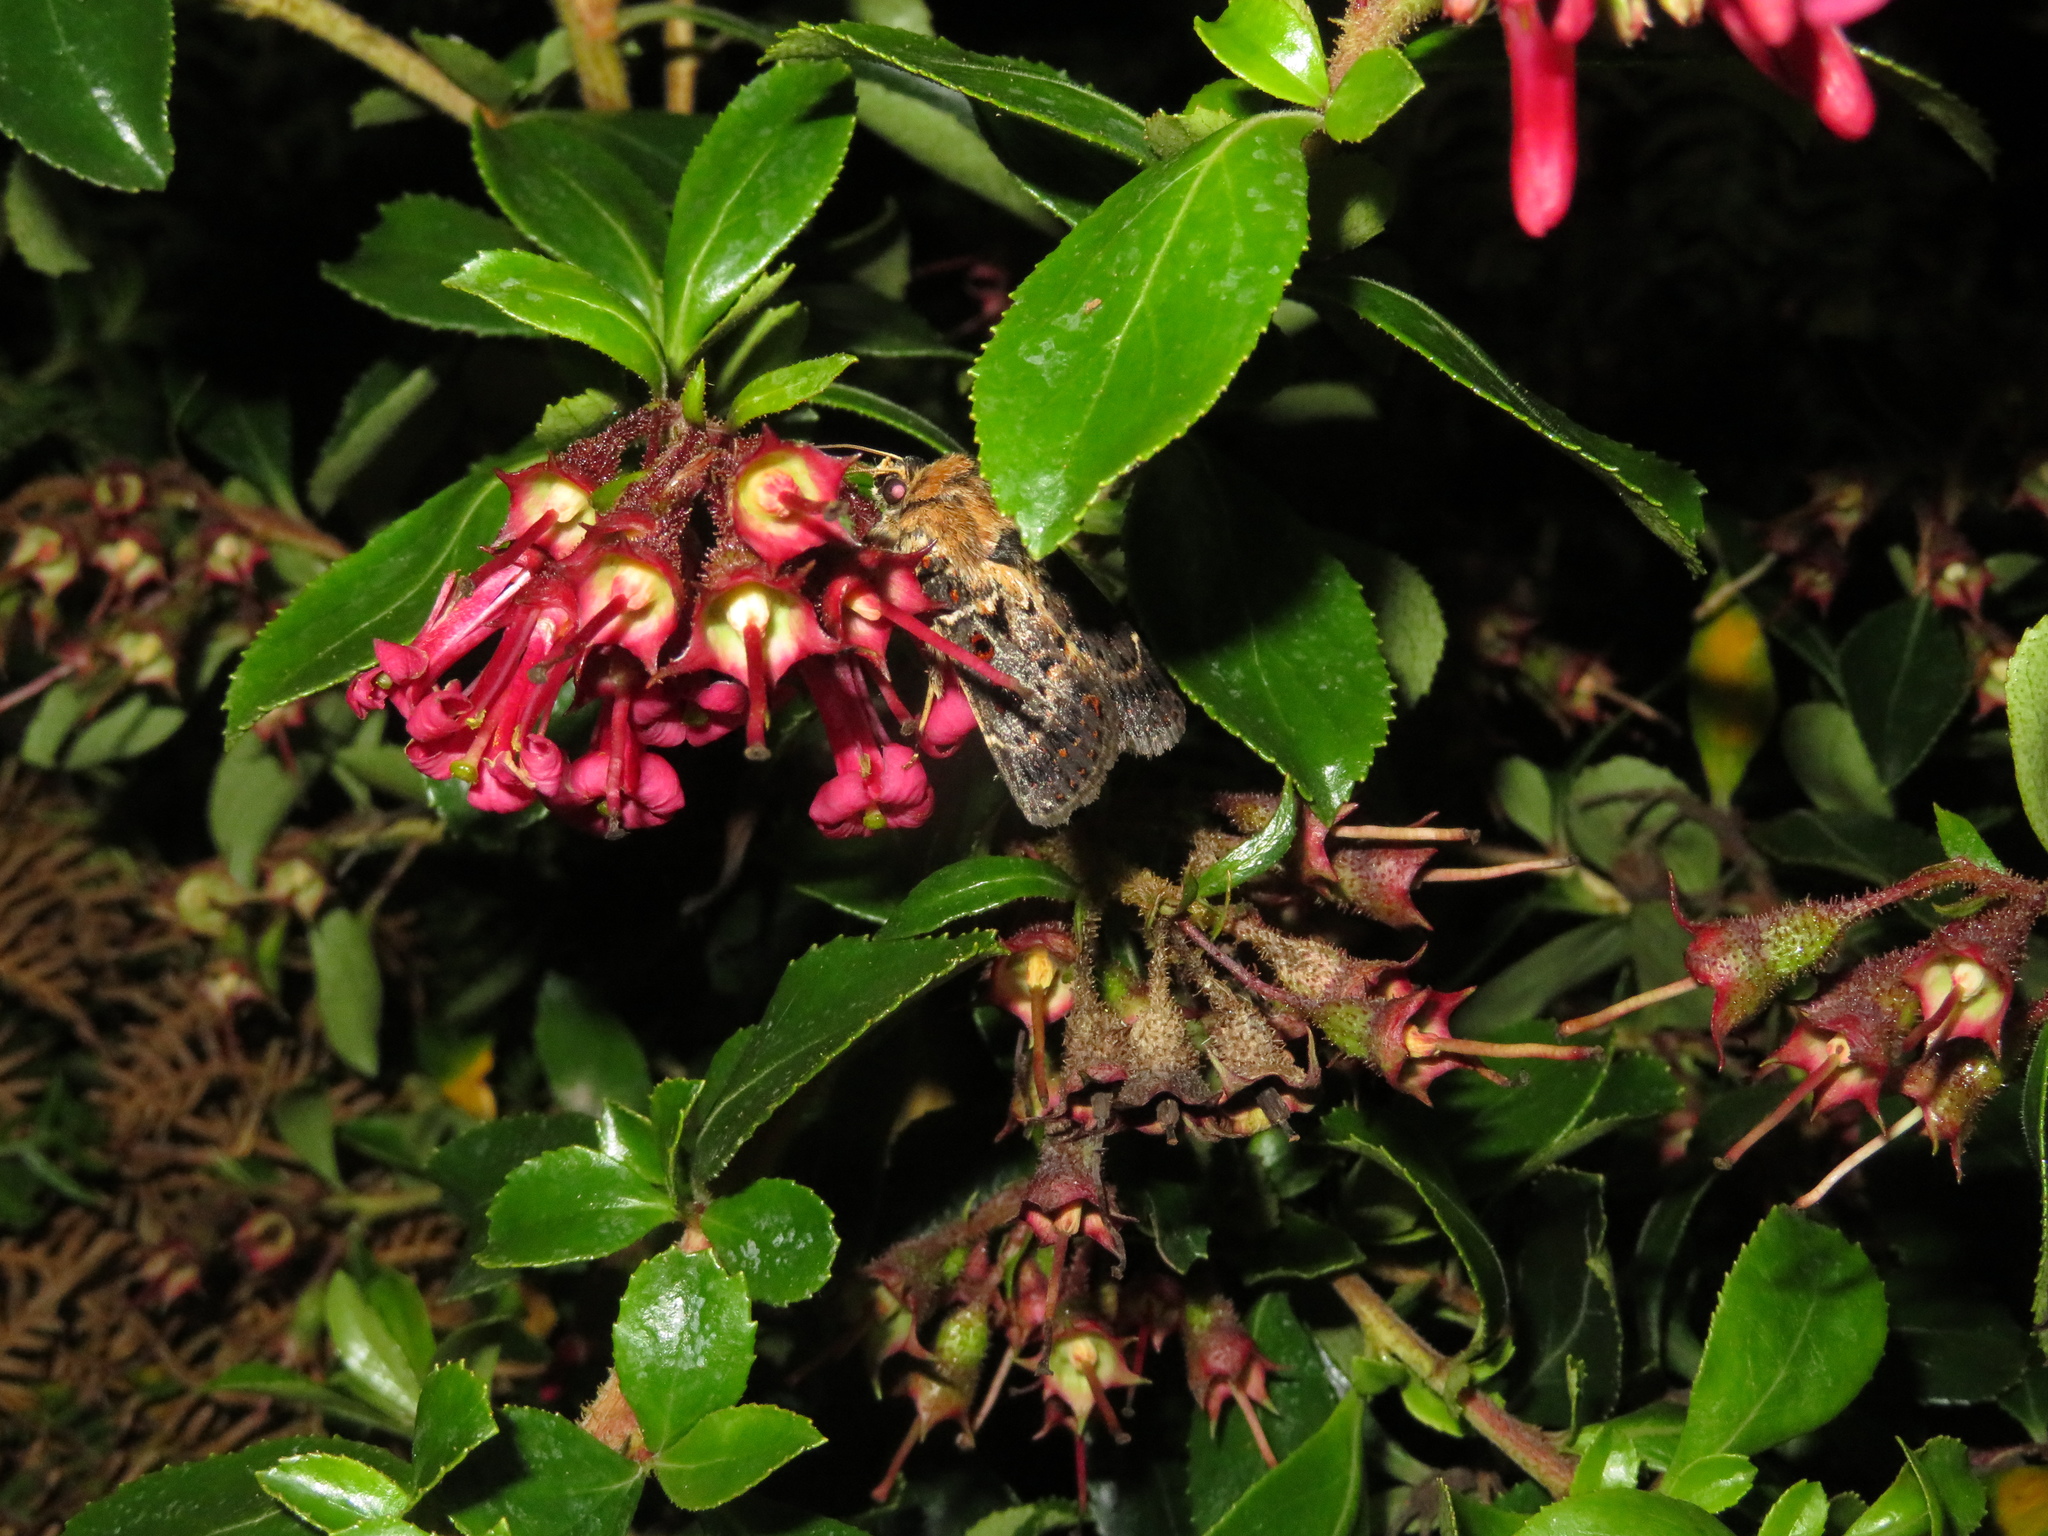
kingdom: Animalia
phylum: Arthropoda
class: Insecta
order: Lepidoptera
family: Noctuidae
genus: Proteuxoa
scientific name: Proteuxoa sanguinipuncta
